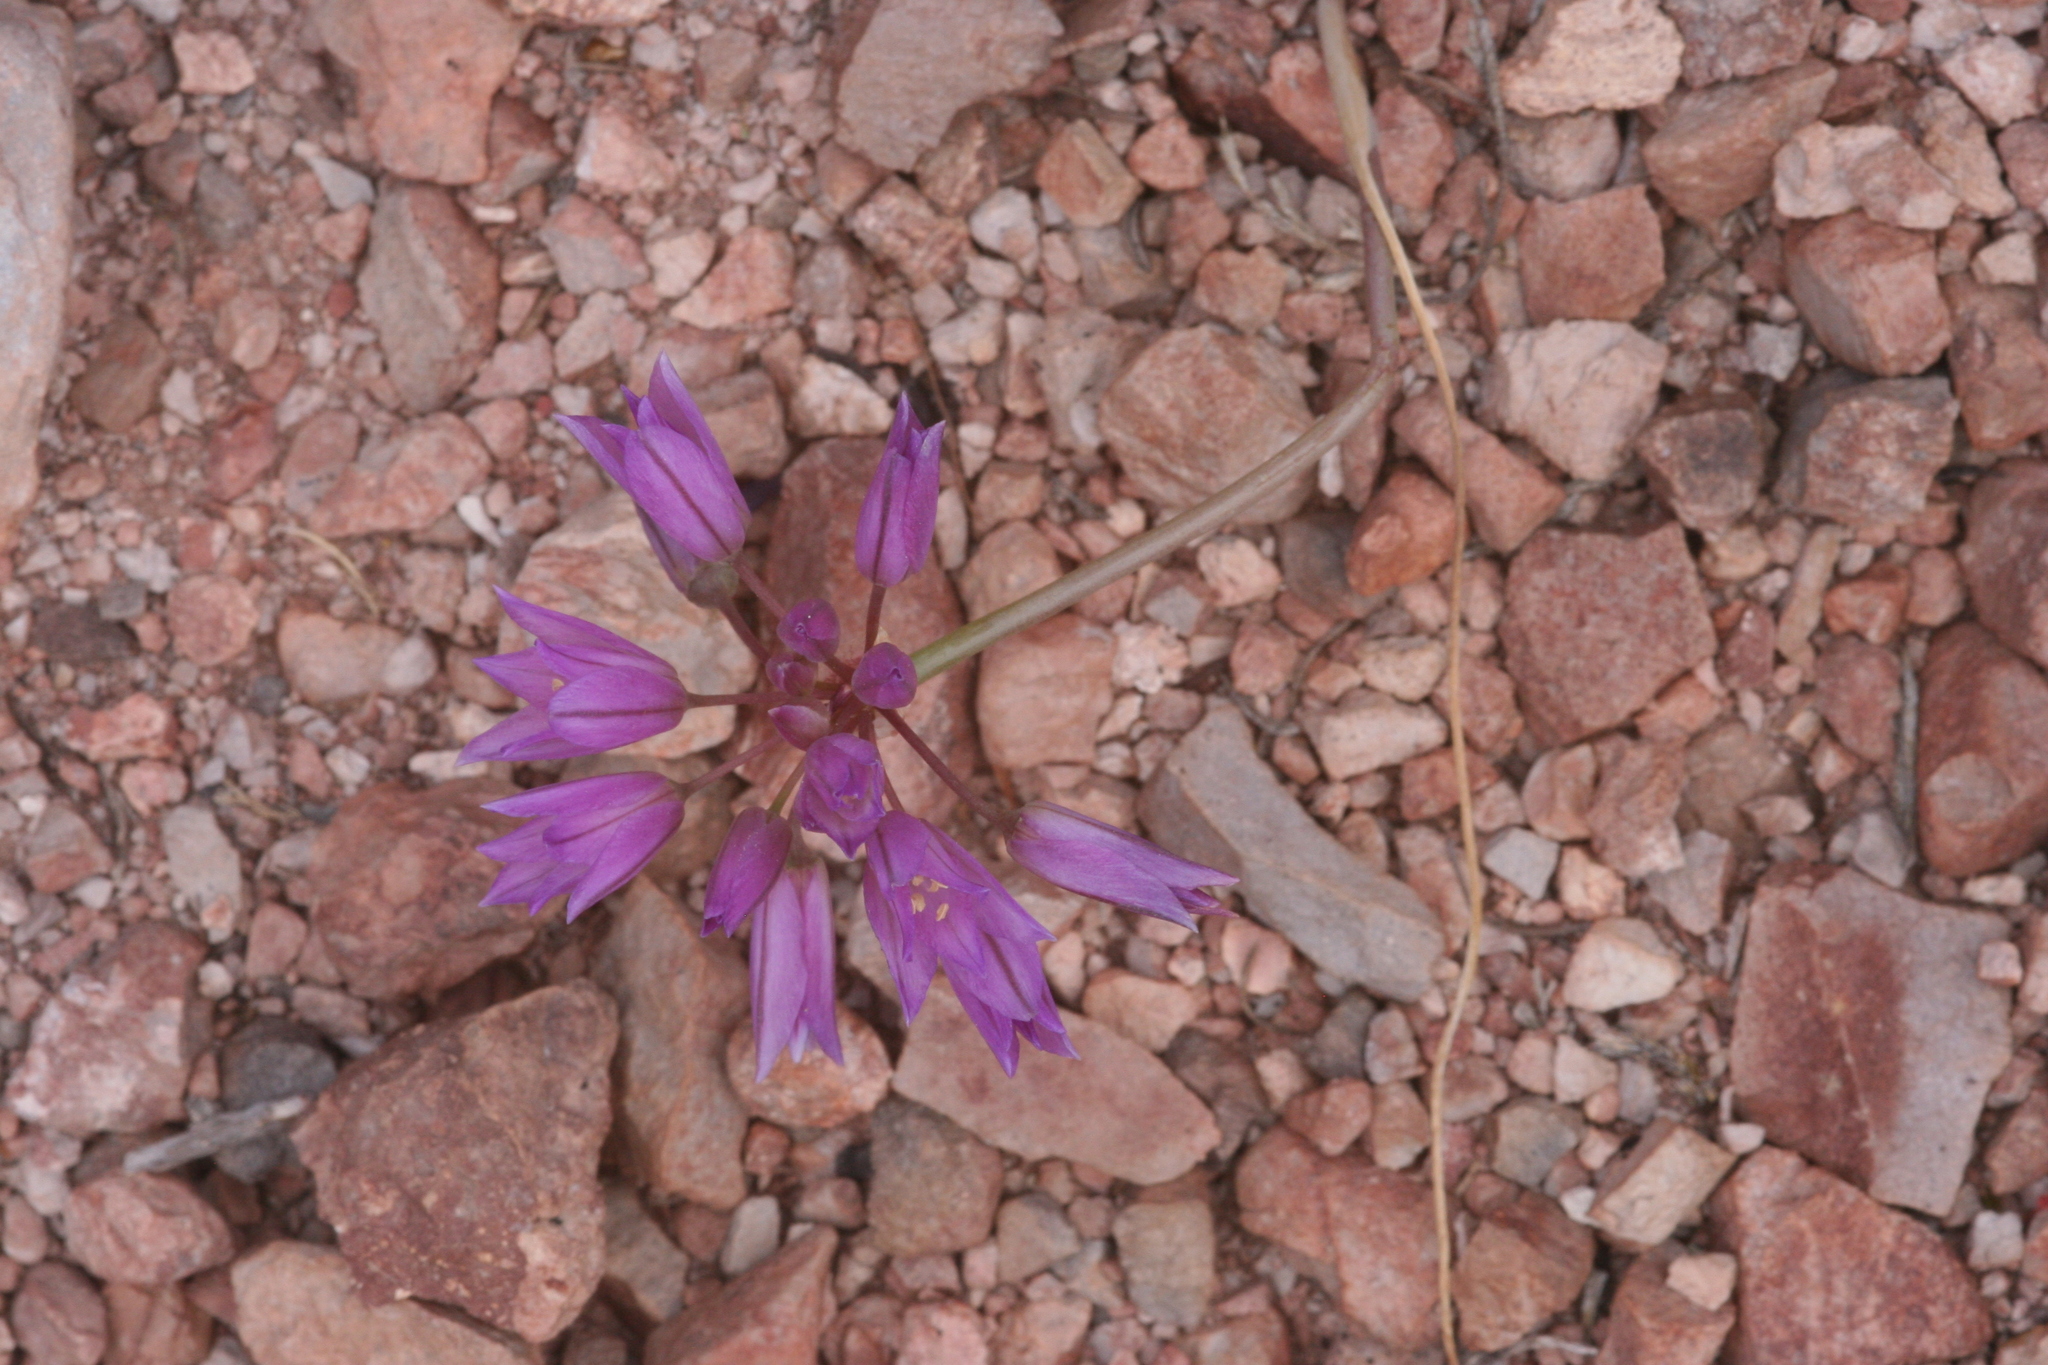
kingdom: Plantae
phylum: Tracheophyta
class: Liliopsida
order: Asparagales
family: Amaryllidaceae
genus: Allium
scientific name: Allium fimbriatum
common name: Fringed onion
